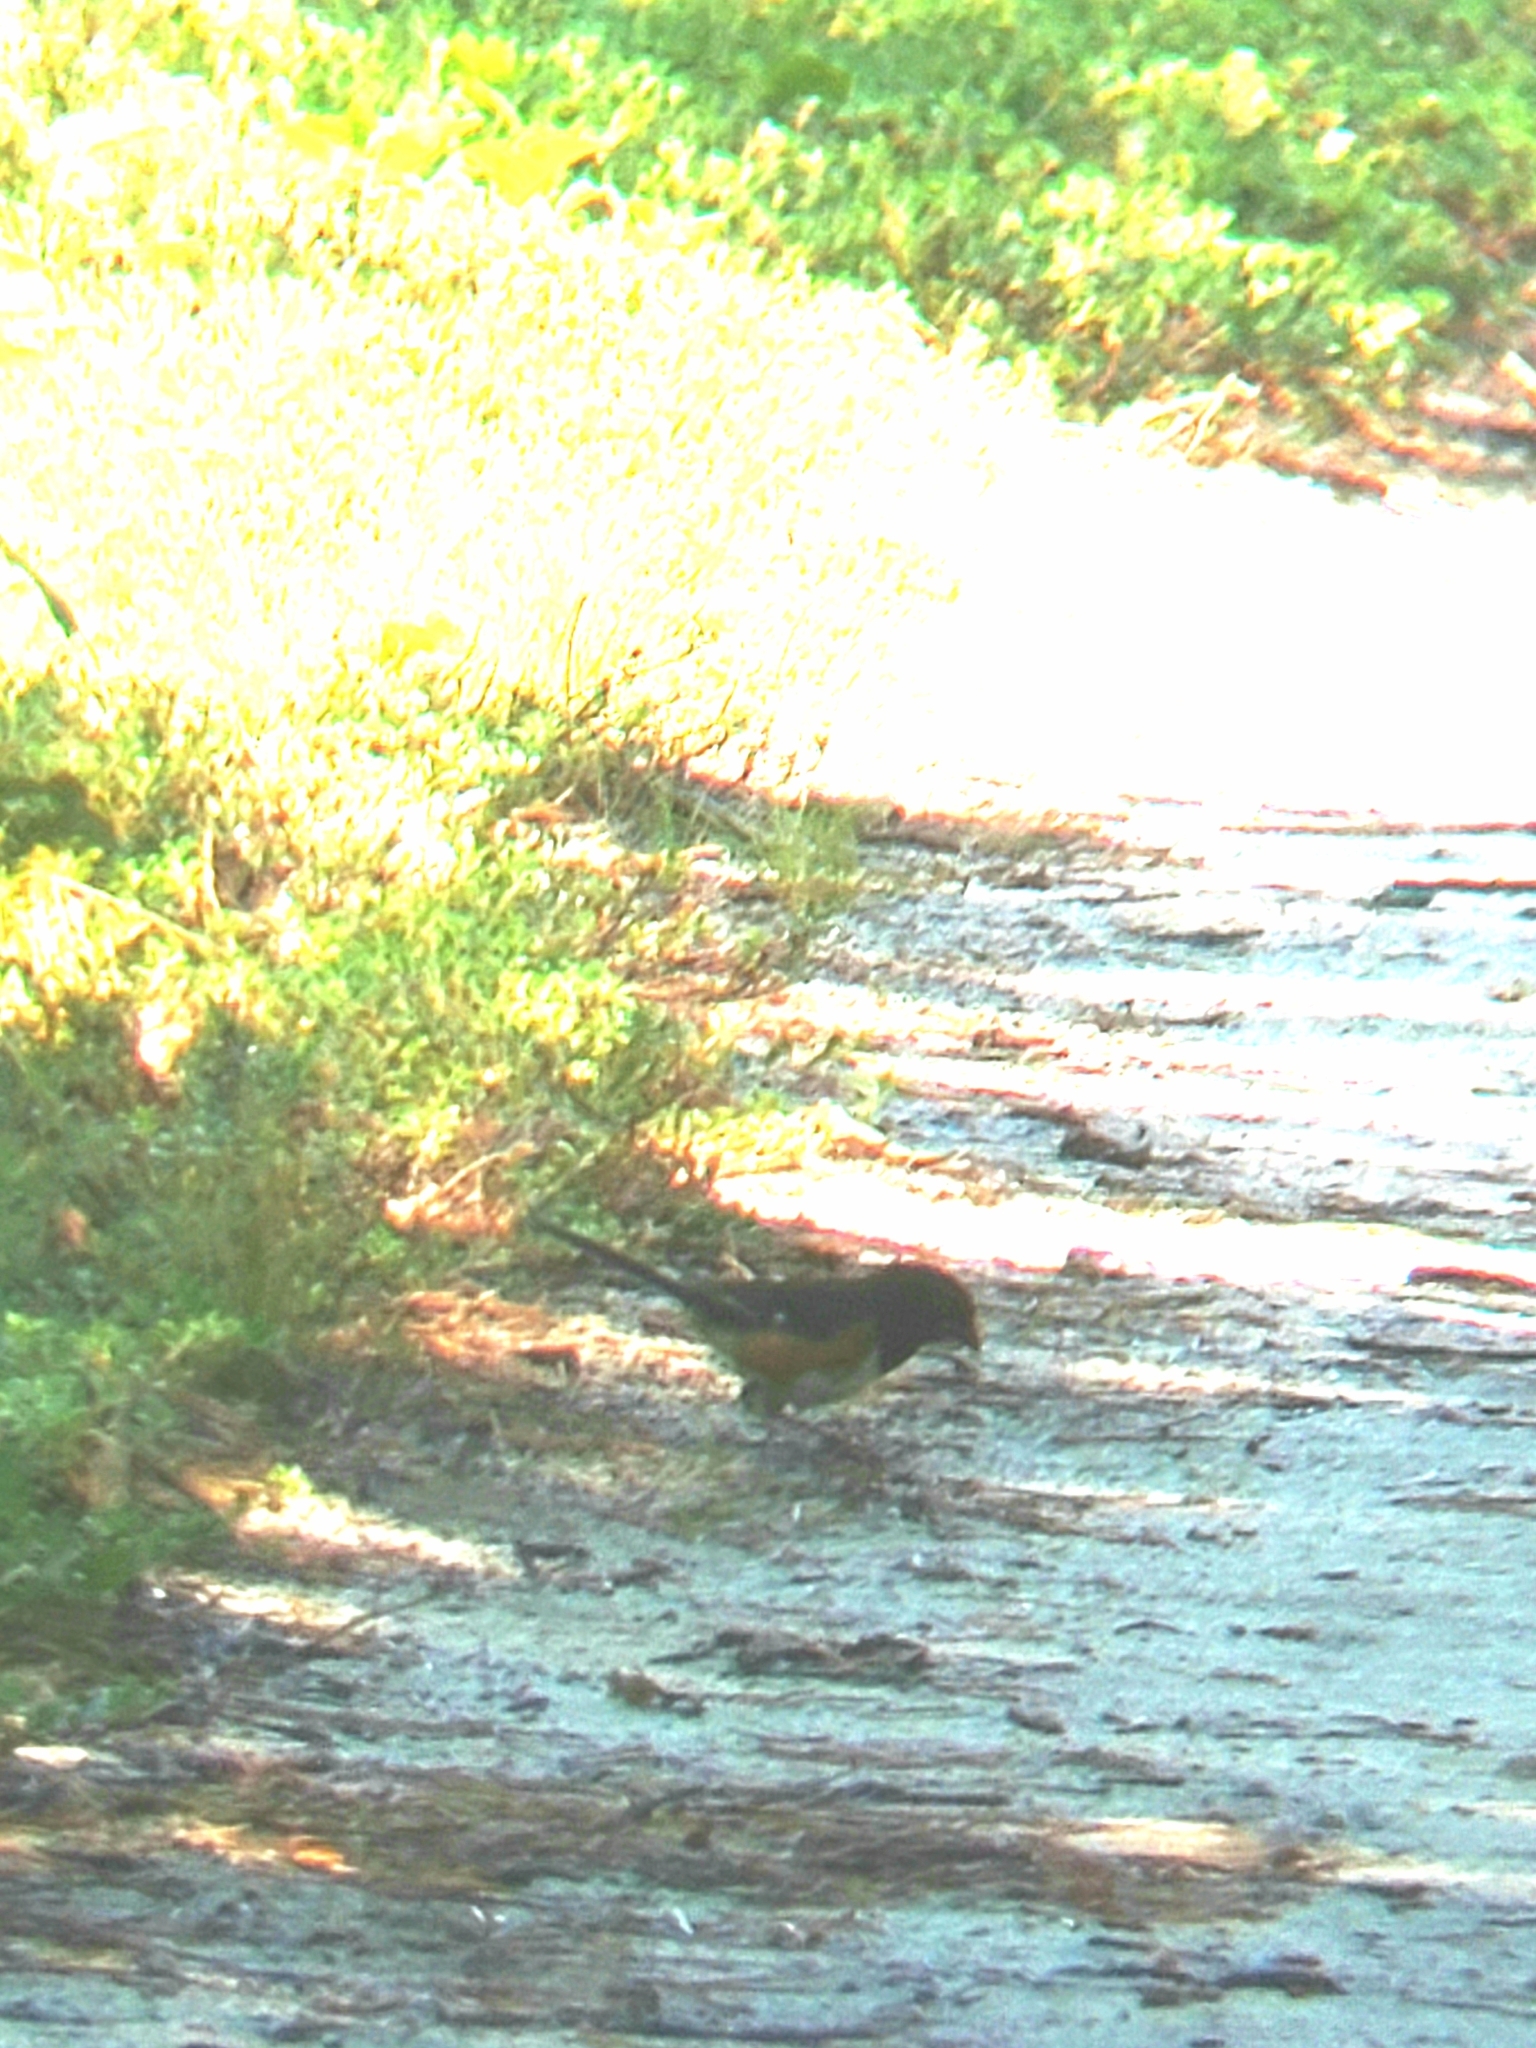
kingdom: Animalia
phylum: Chordata
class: Aves
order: Passeriformes
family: Passerellidae
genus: Pipilo
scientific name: Pipilo erythrophthalmus
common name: Eastern towhee
